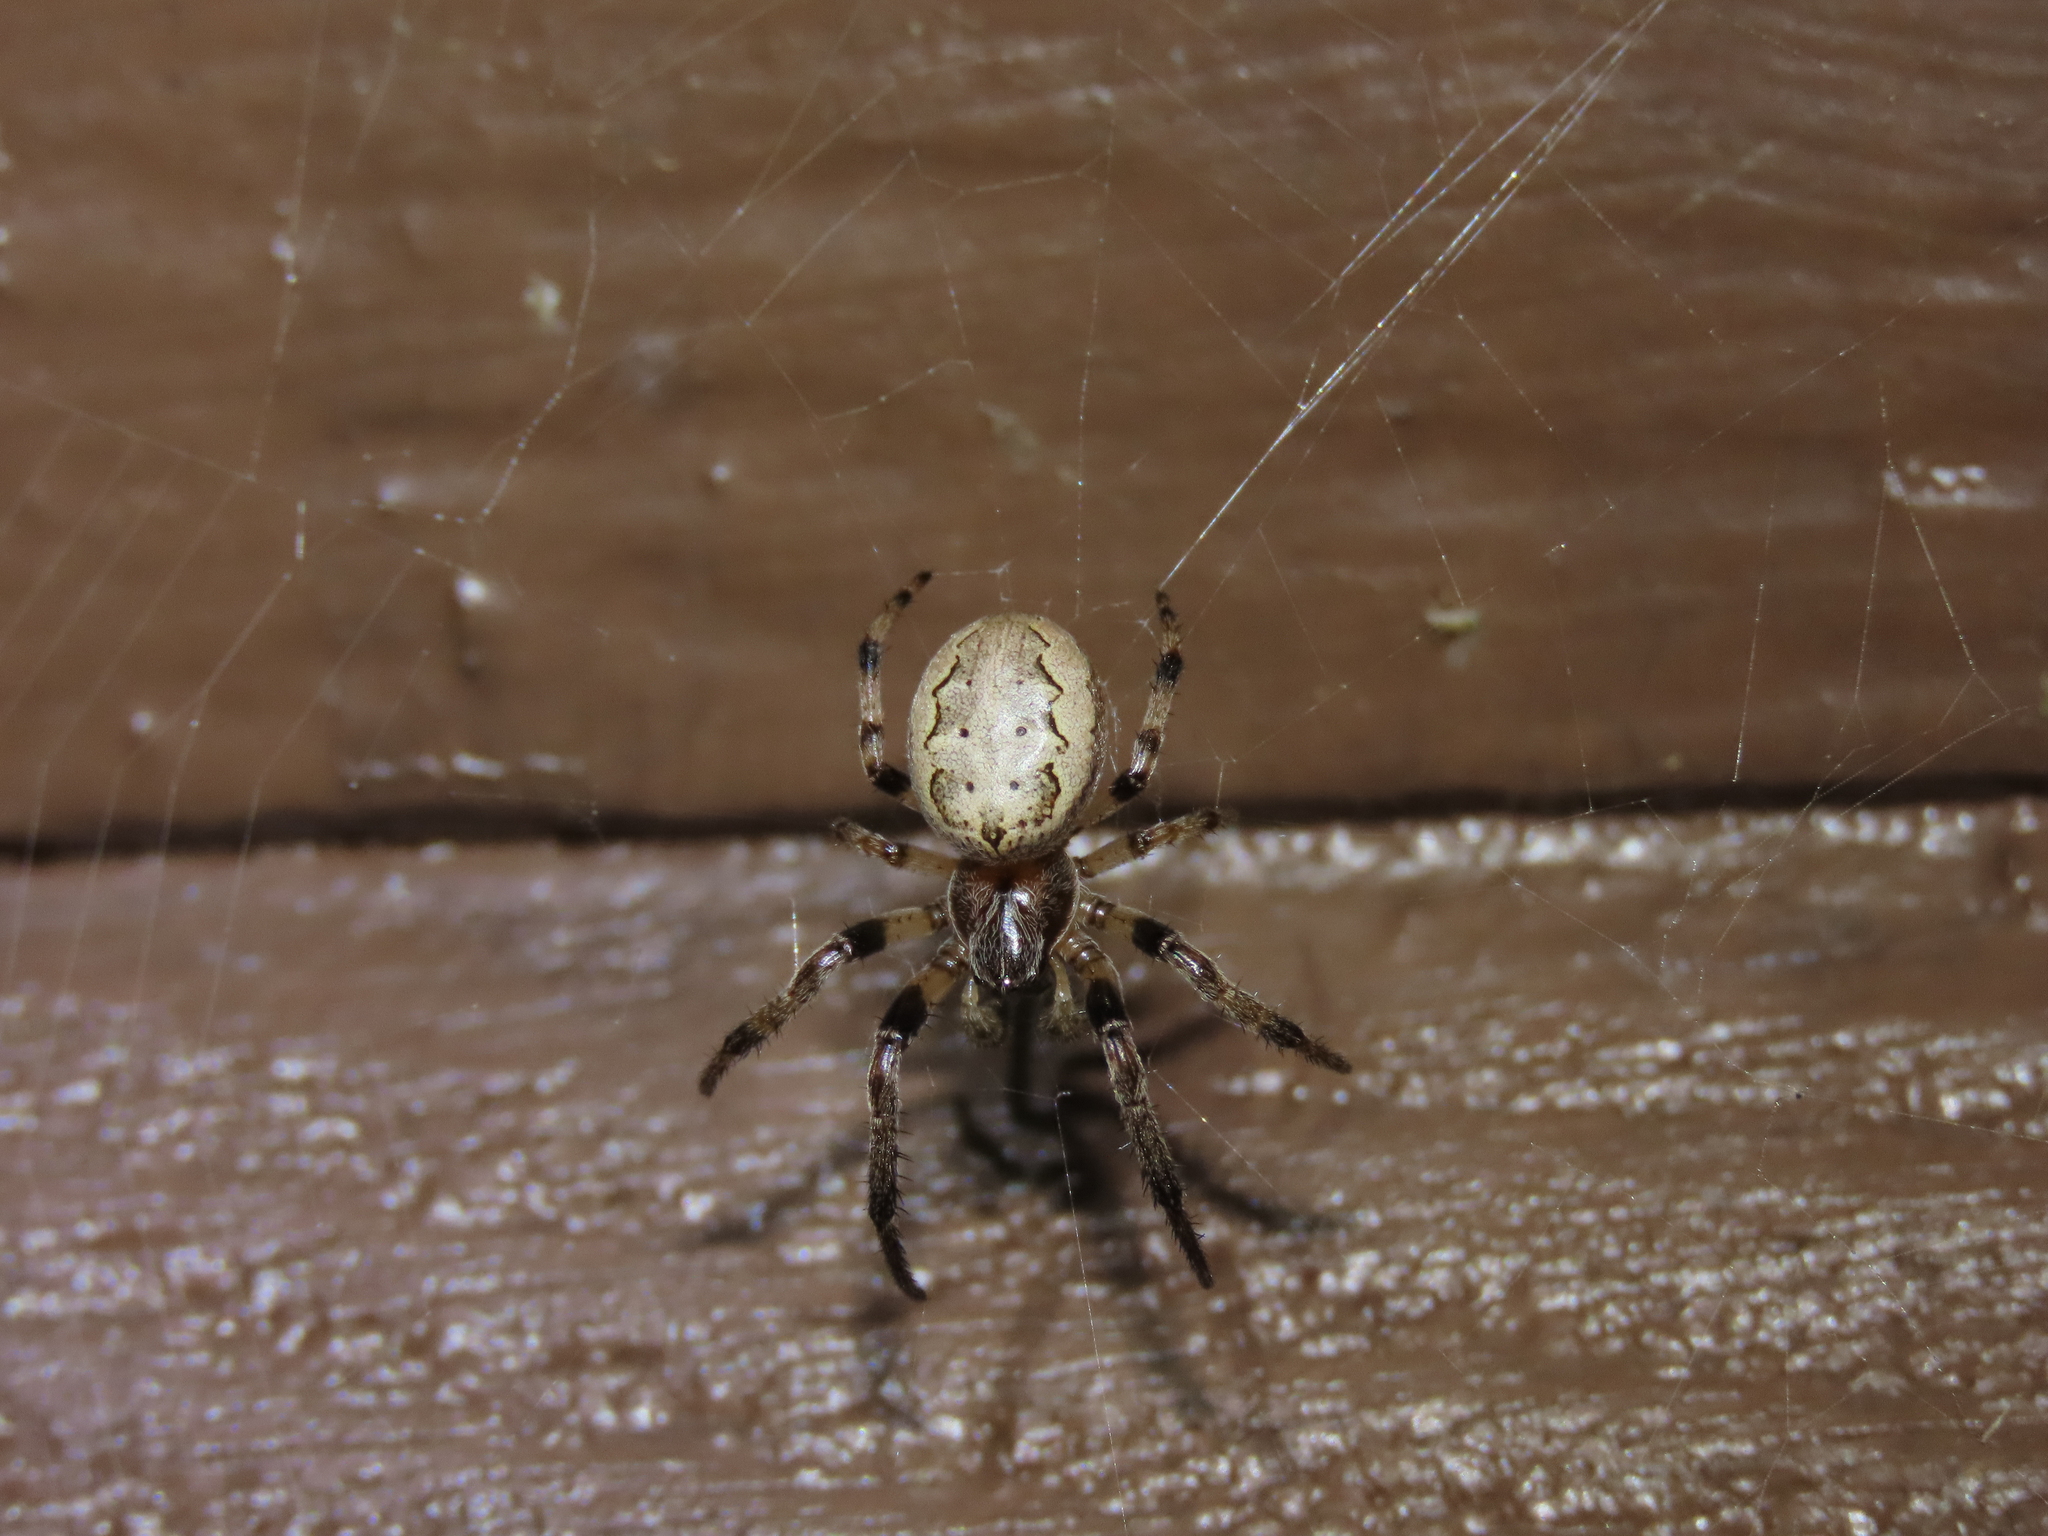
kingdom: Animalia
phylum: Arthropoda
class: Arachnida
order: Araneae
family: Araneidae
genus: Larinioides
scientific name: Larinioides cornutus
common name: Furrow orbweaver
